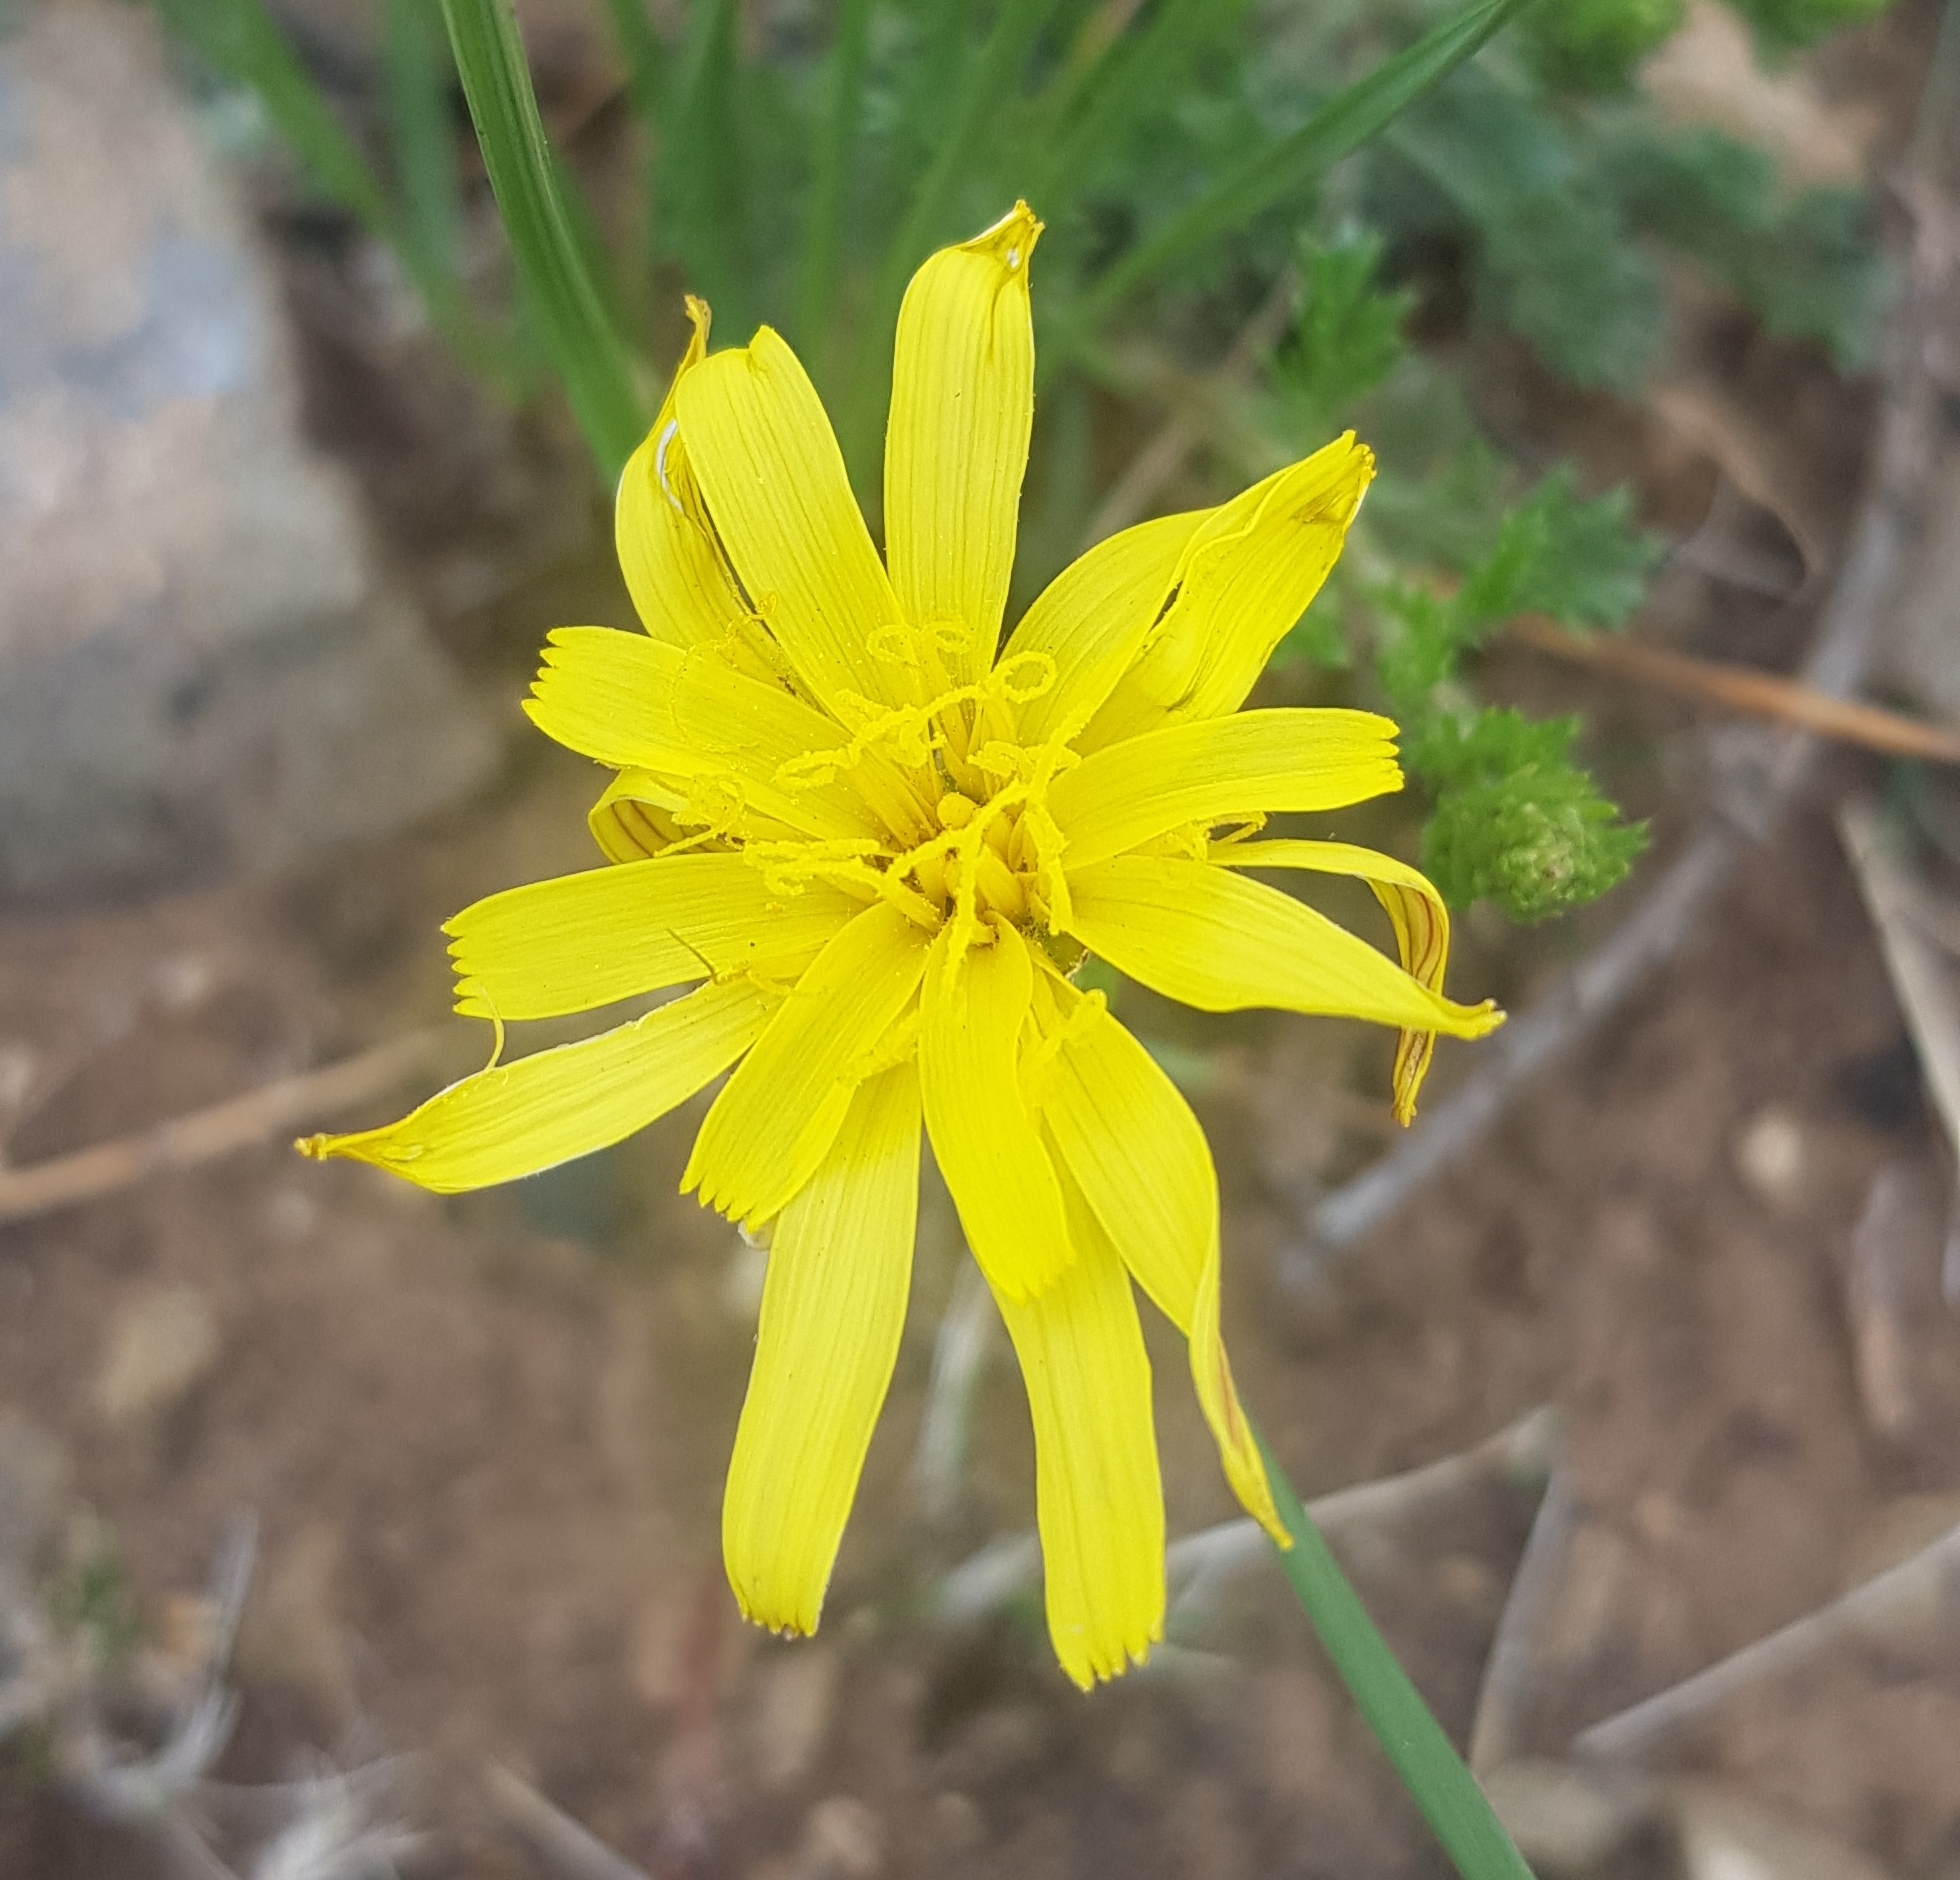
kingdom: Plantae
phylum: Tracheophyta
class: Magnoliopsida
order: Asterales
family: Asteraceae
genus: Scorzonera
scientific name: Scorzonera radiata
